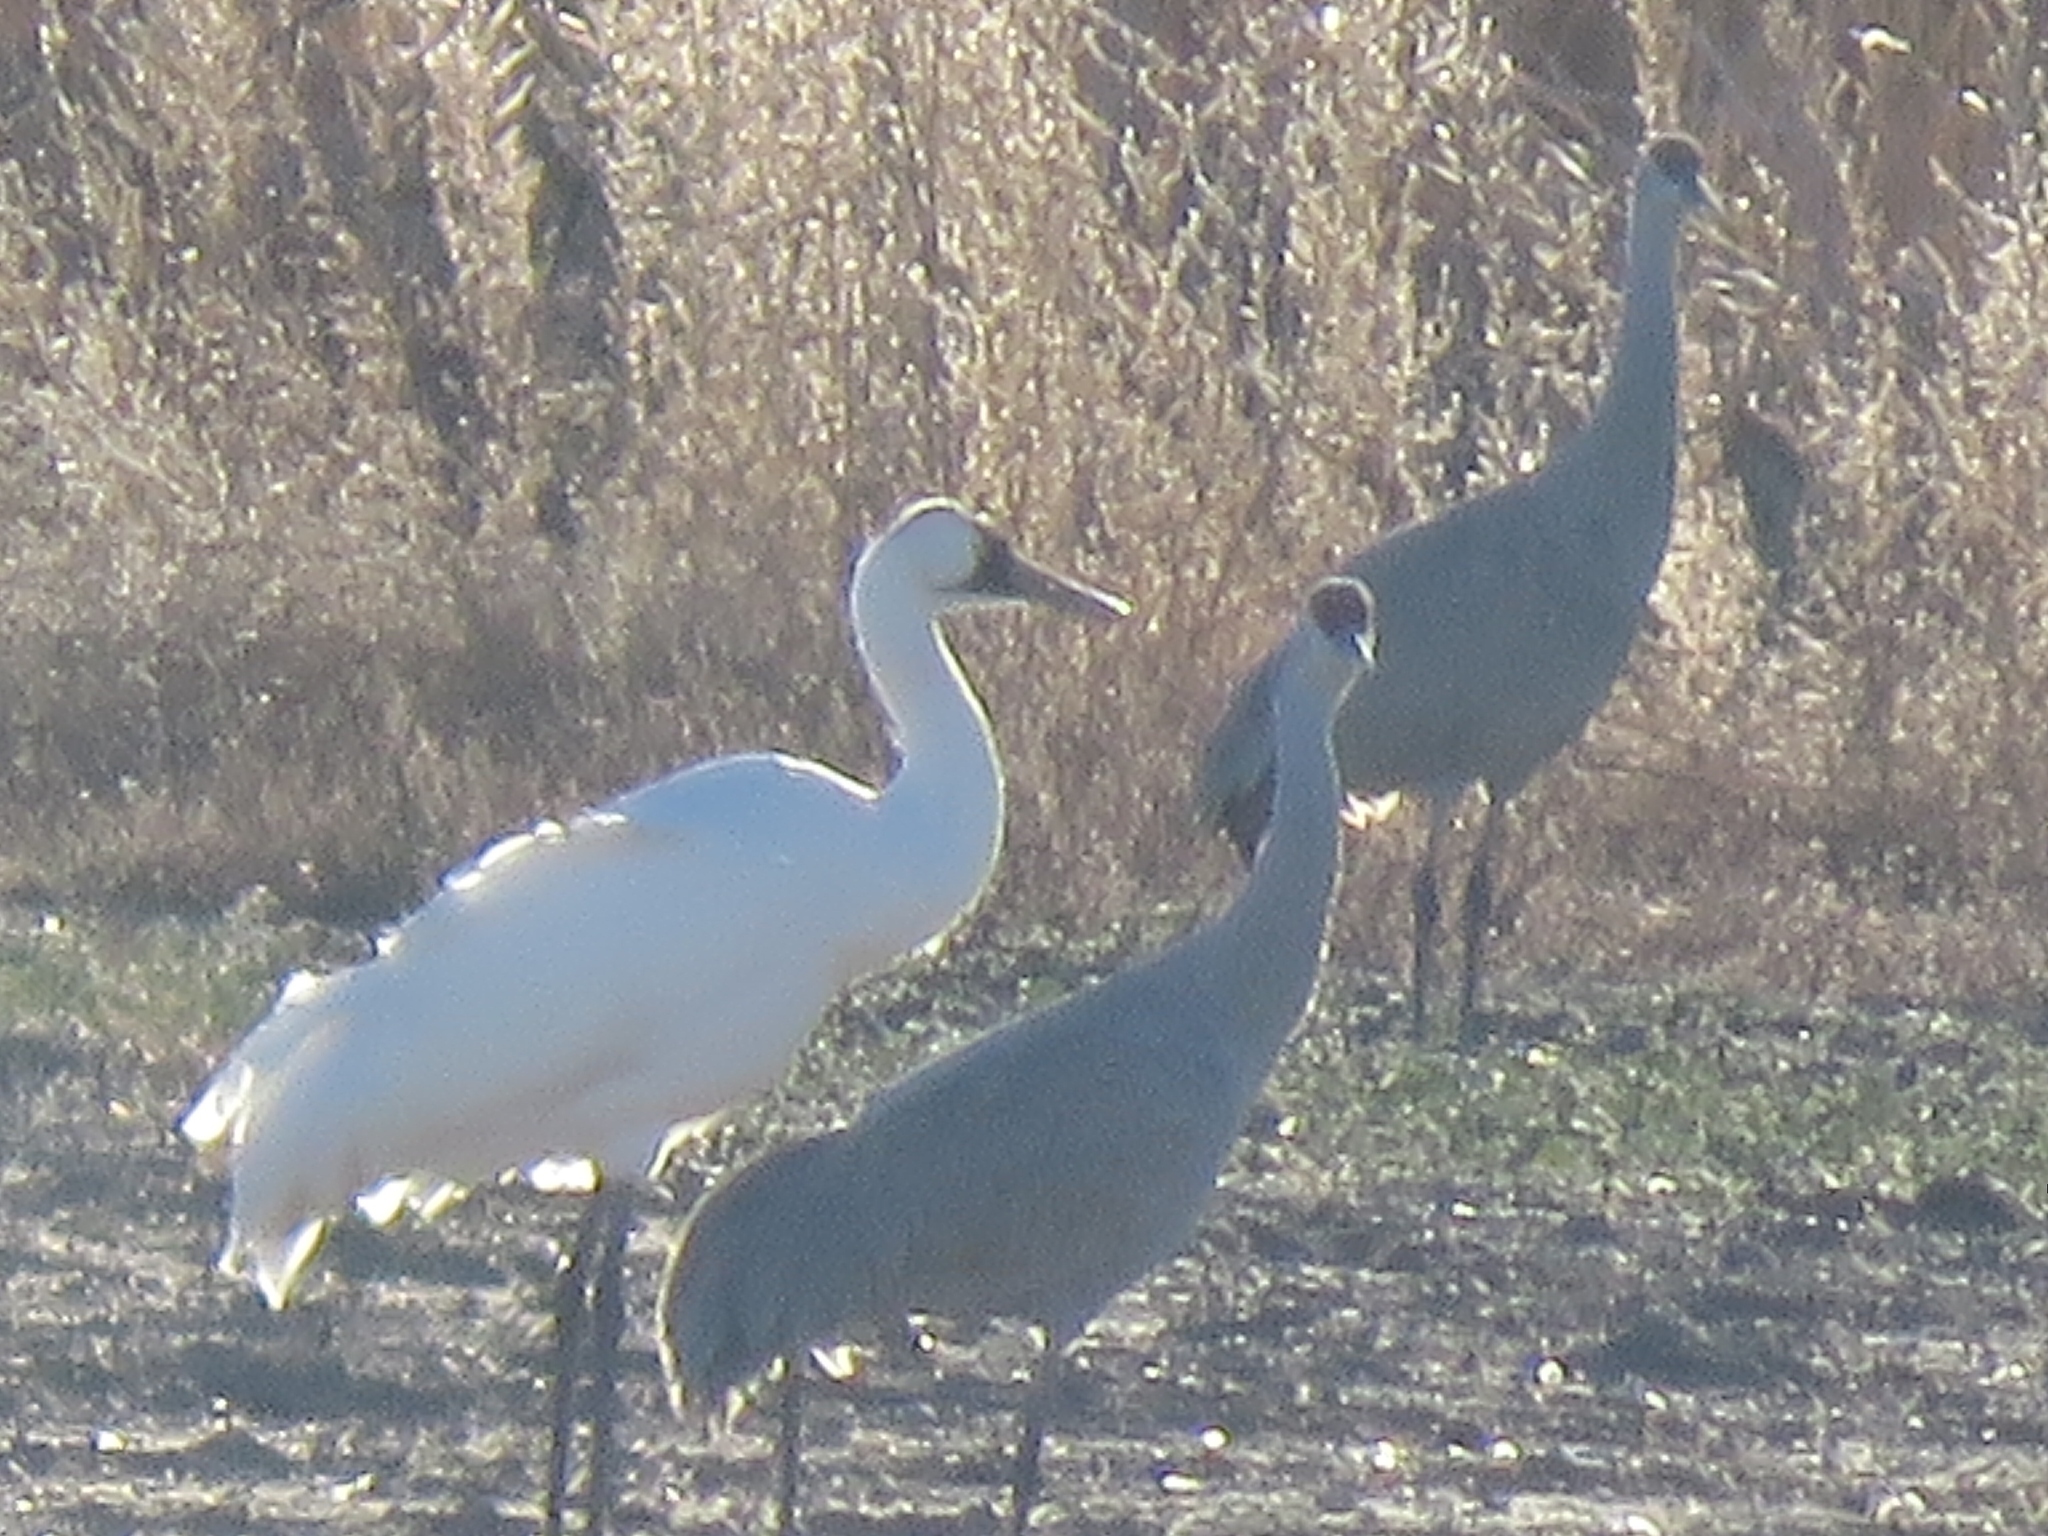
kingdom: Animalia
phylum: Chordata
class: Aves
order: Gruiformes
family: Gruidae
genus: Grus
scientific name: Grus americana
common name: Whooping crane
